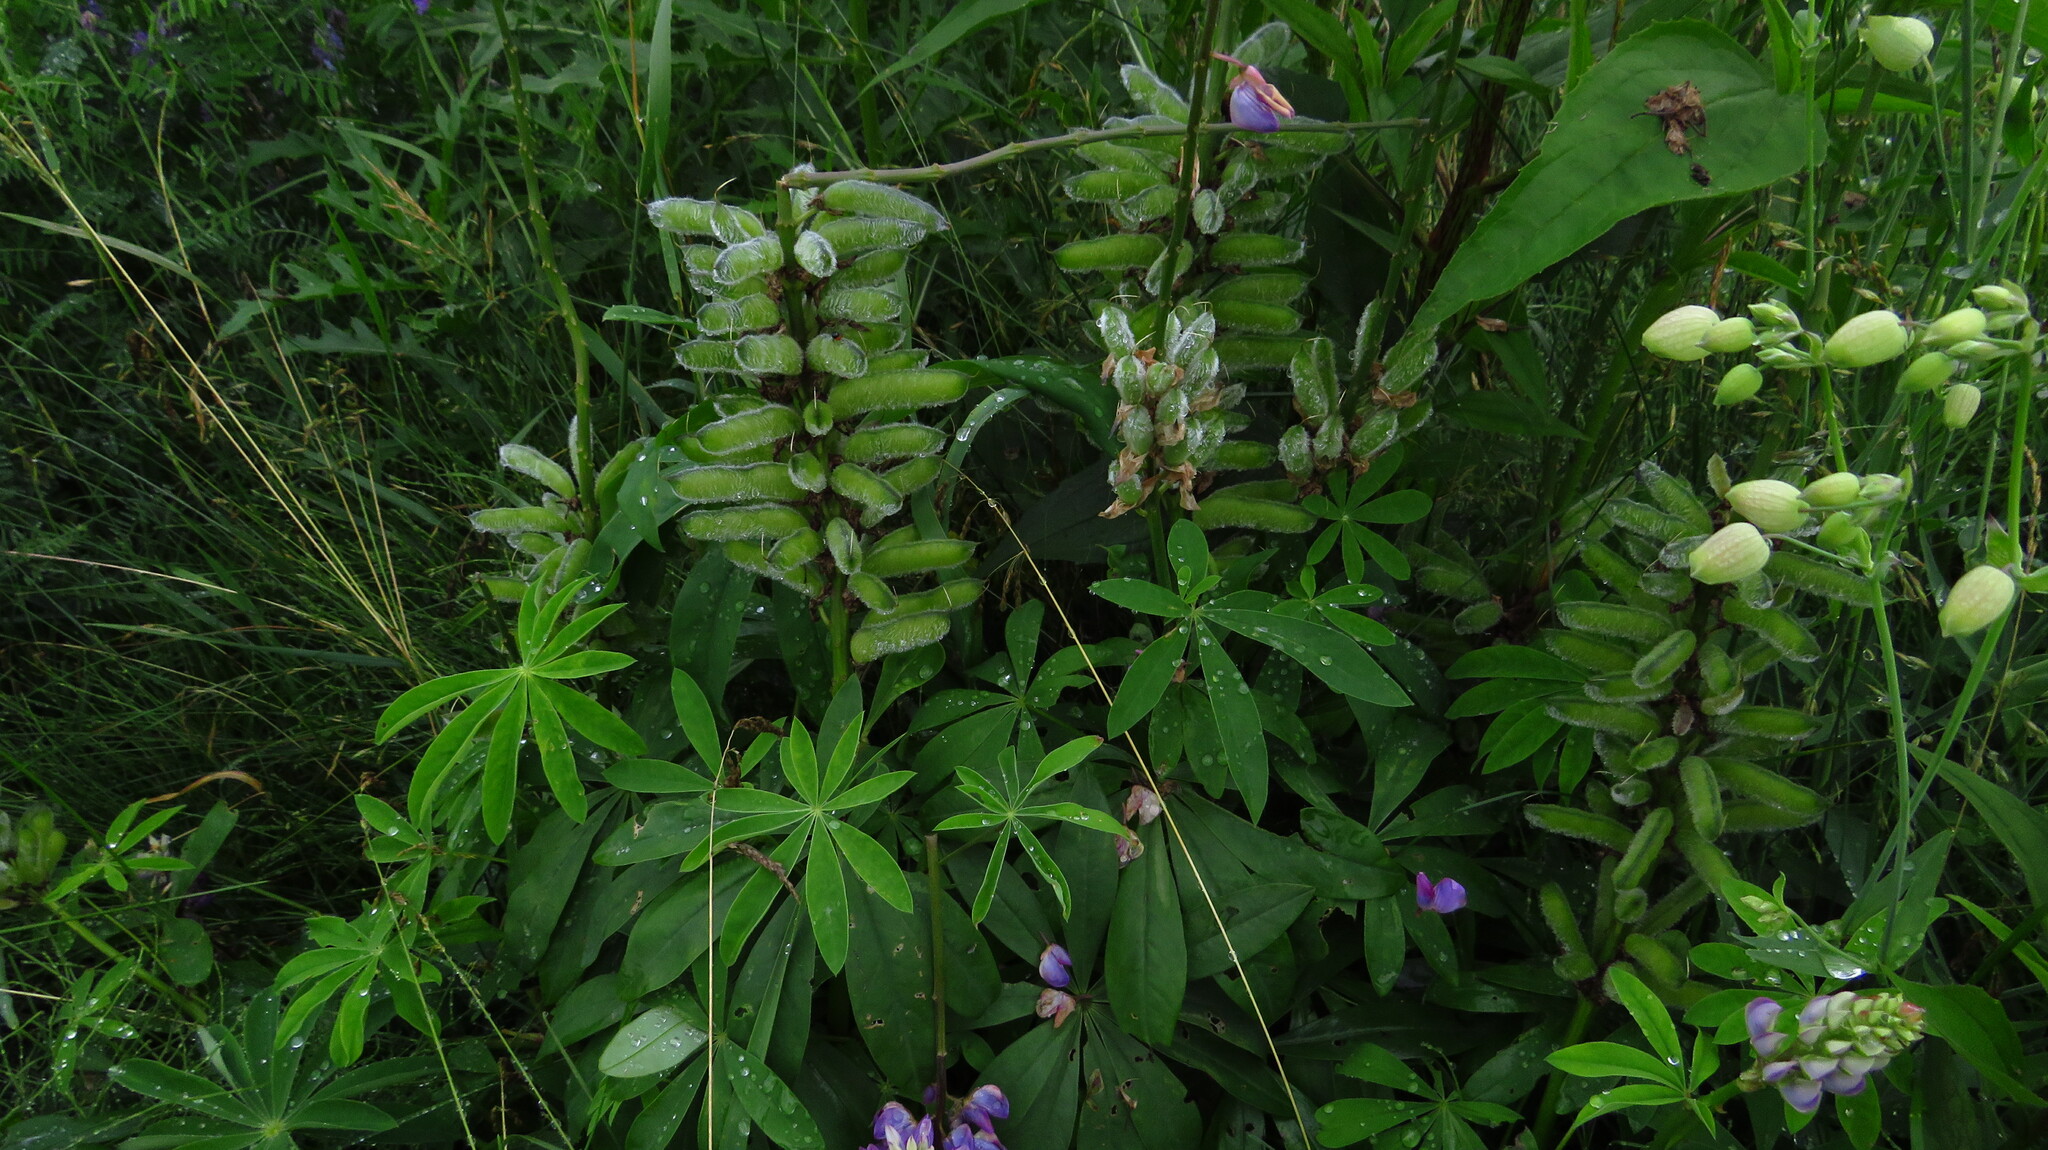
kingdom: Plantae
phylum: Tracheophyta
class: Magnoliopsida
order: Fabales
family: Fabaceae
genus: Lupinus
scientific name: Lupinus polyphyllus
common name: Garden lupin
